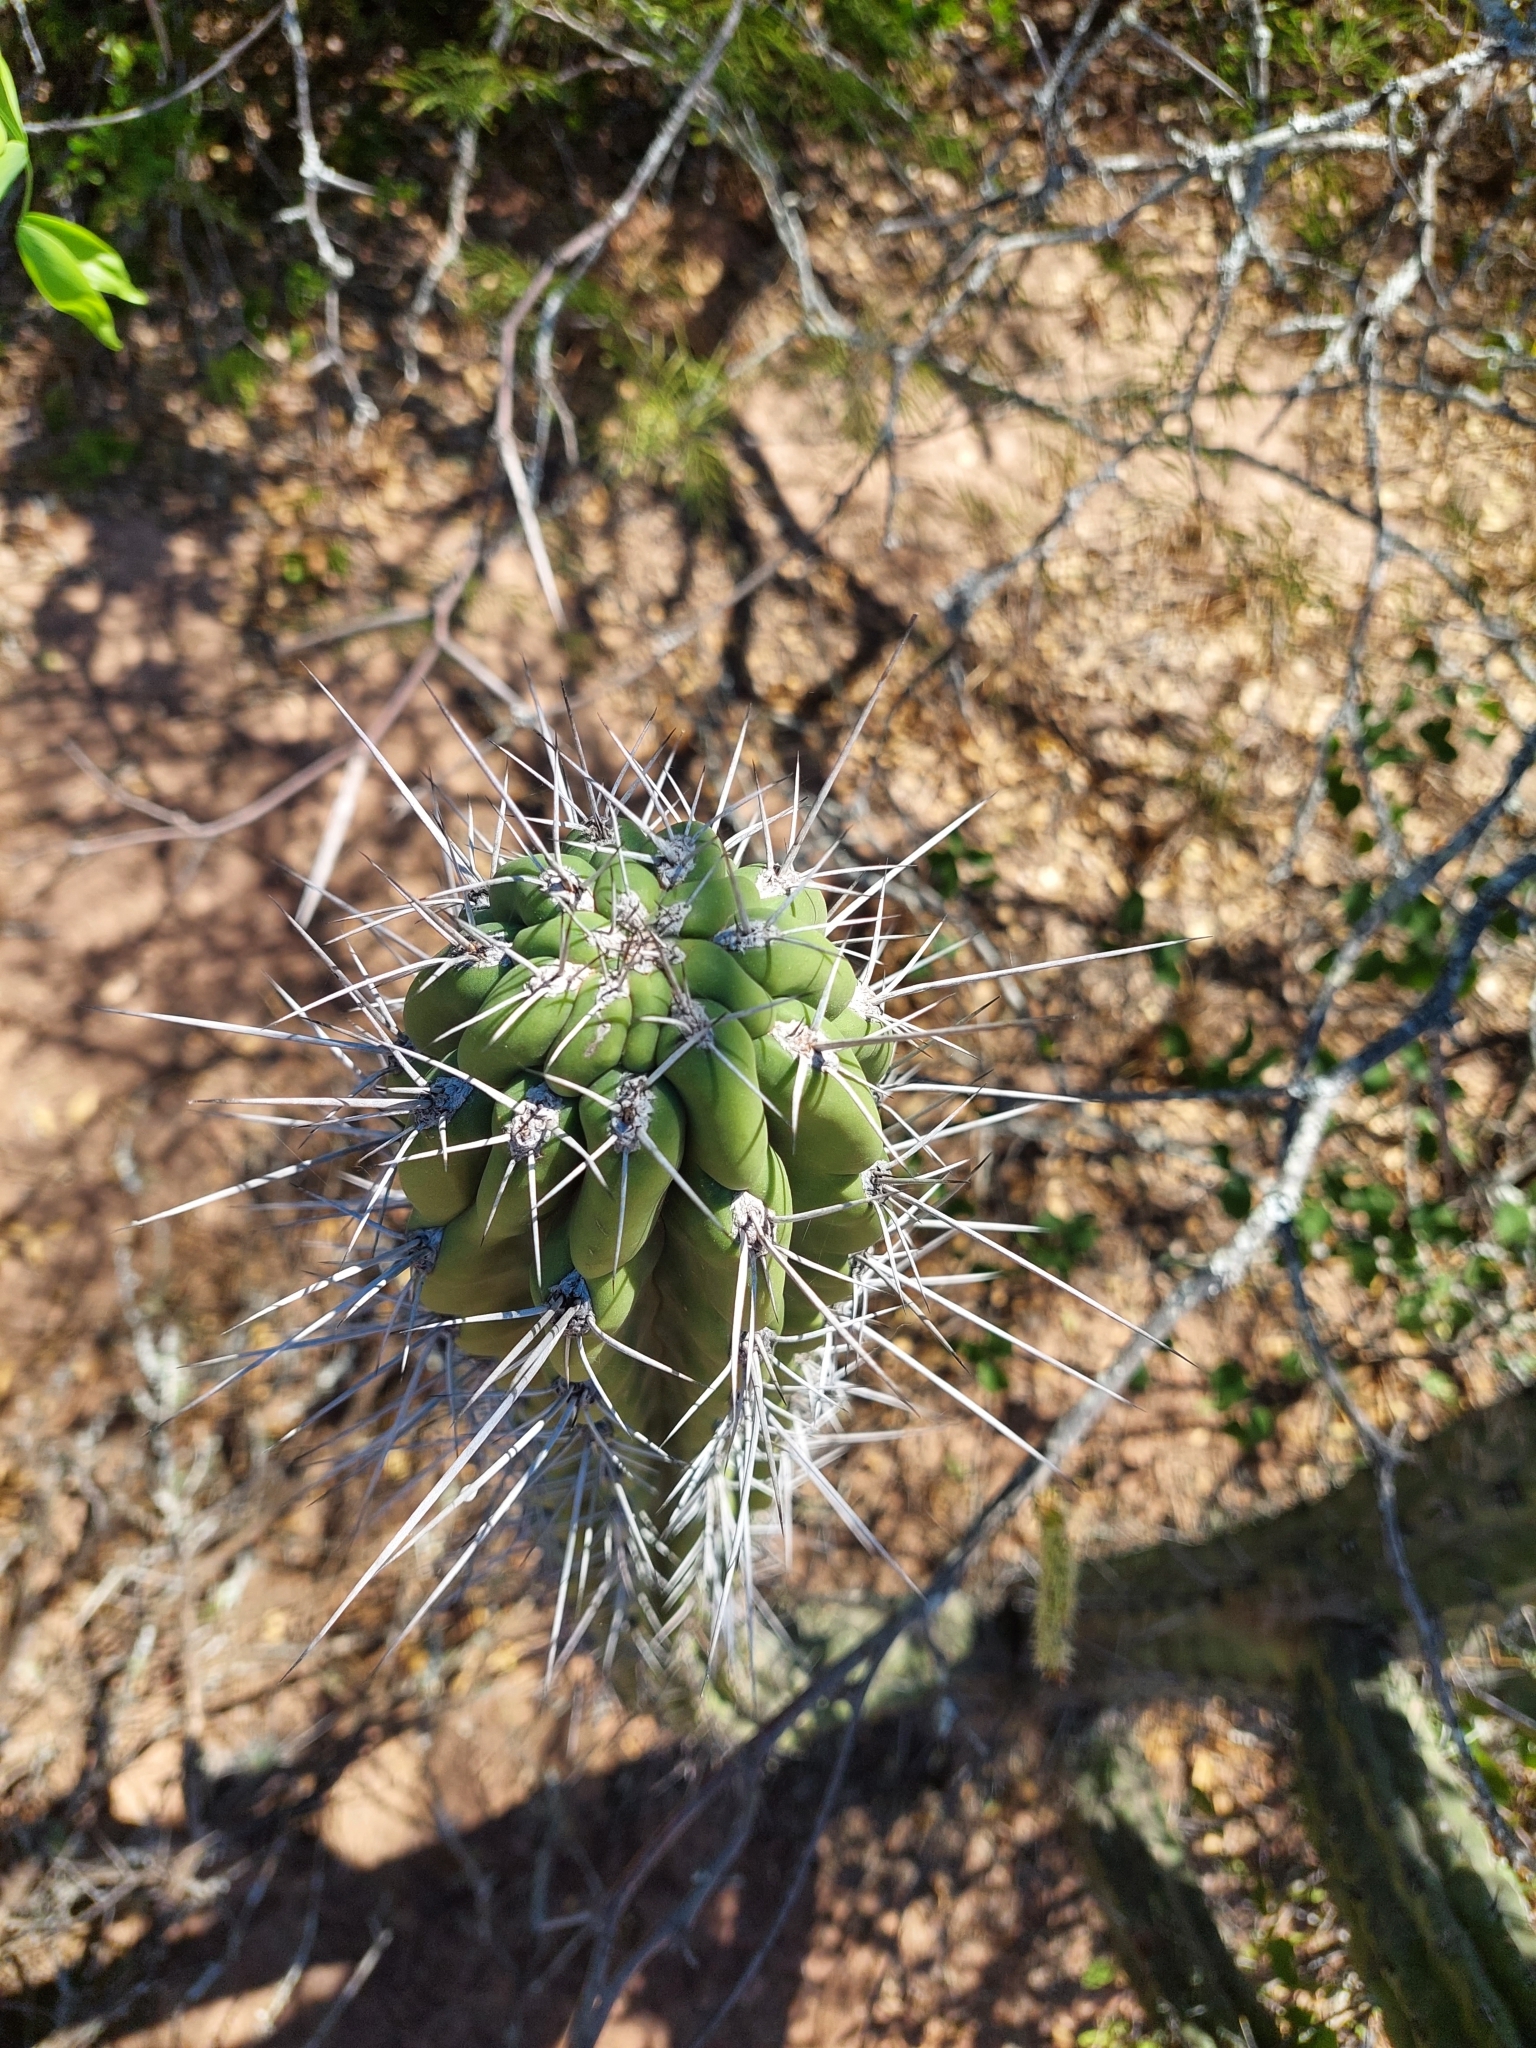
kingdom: Plantae
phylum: Tracheophyta
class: Magnoliopsida
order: Caryophyllales
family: Cactaceae
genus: Stetsonia
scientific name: Stetsonia coryne
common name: Toothpick cactus
